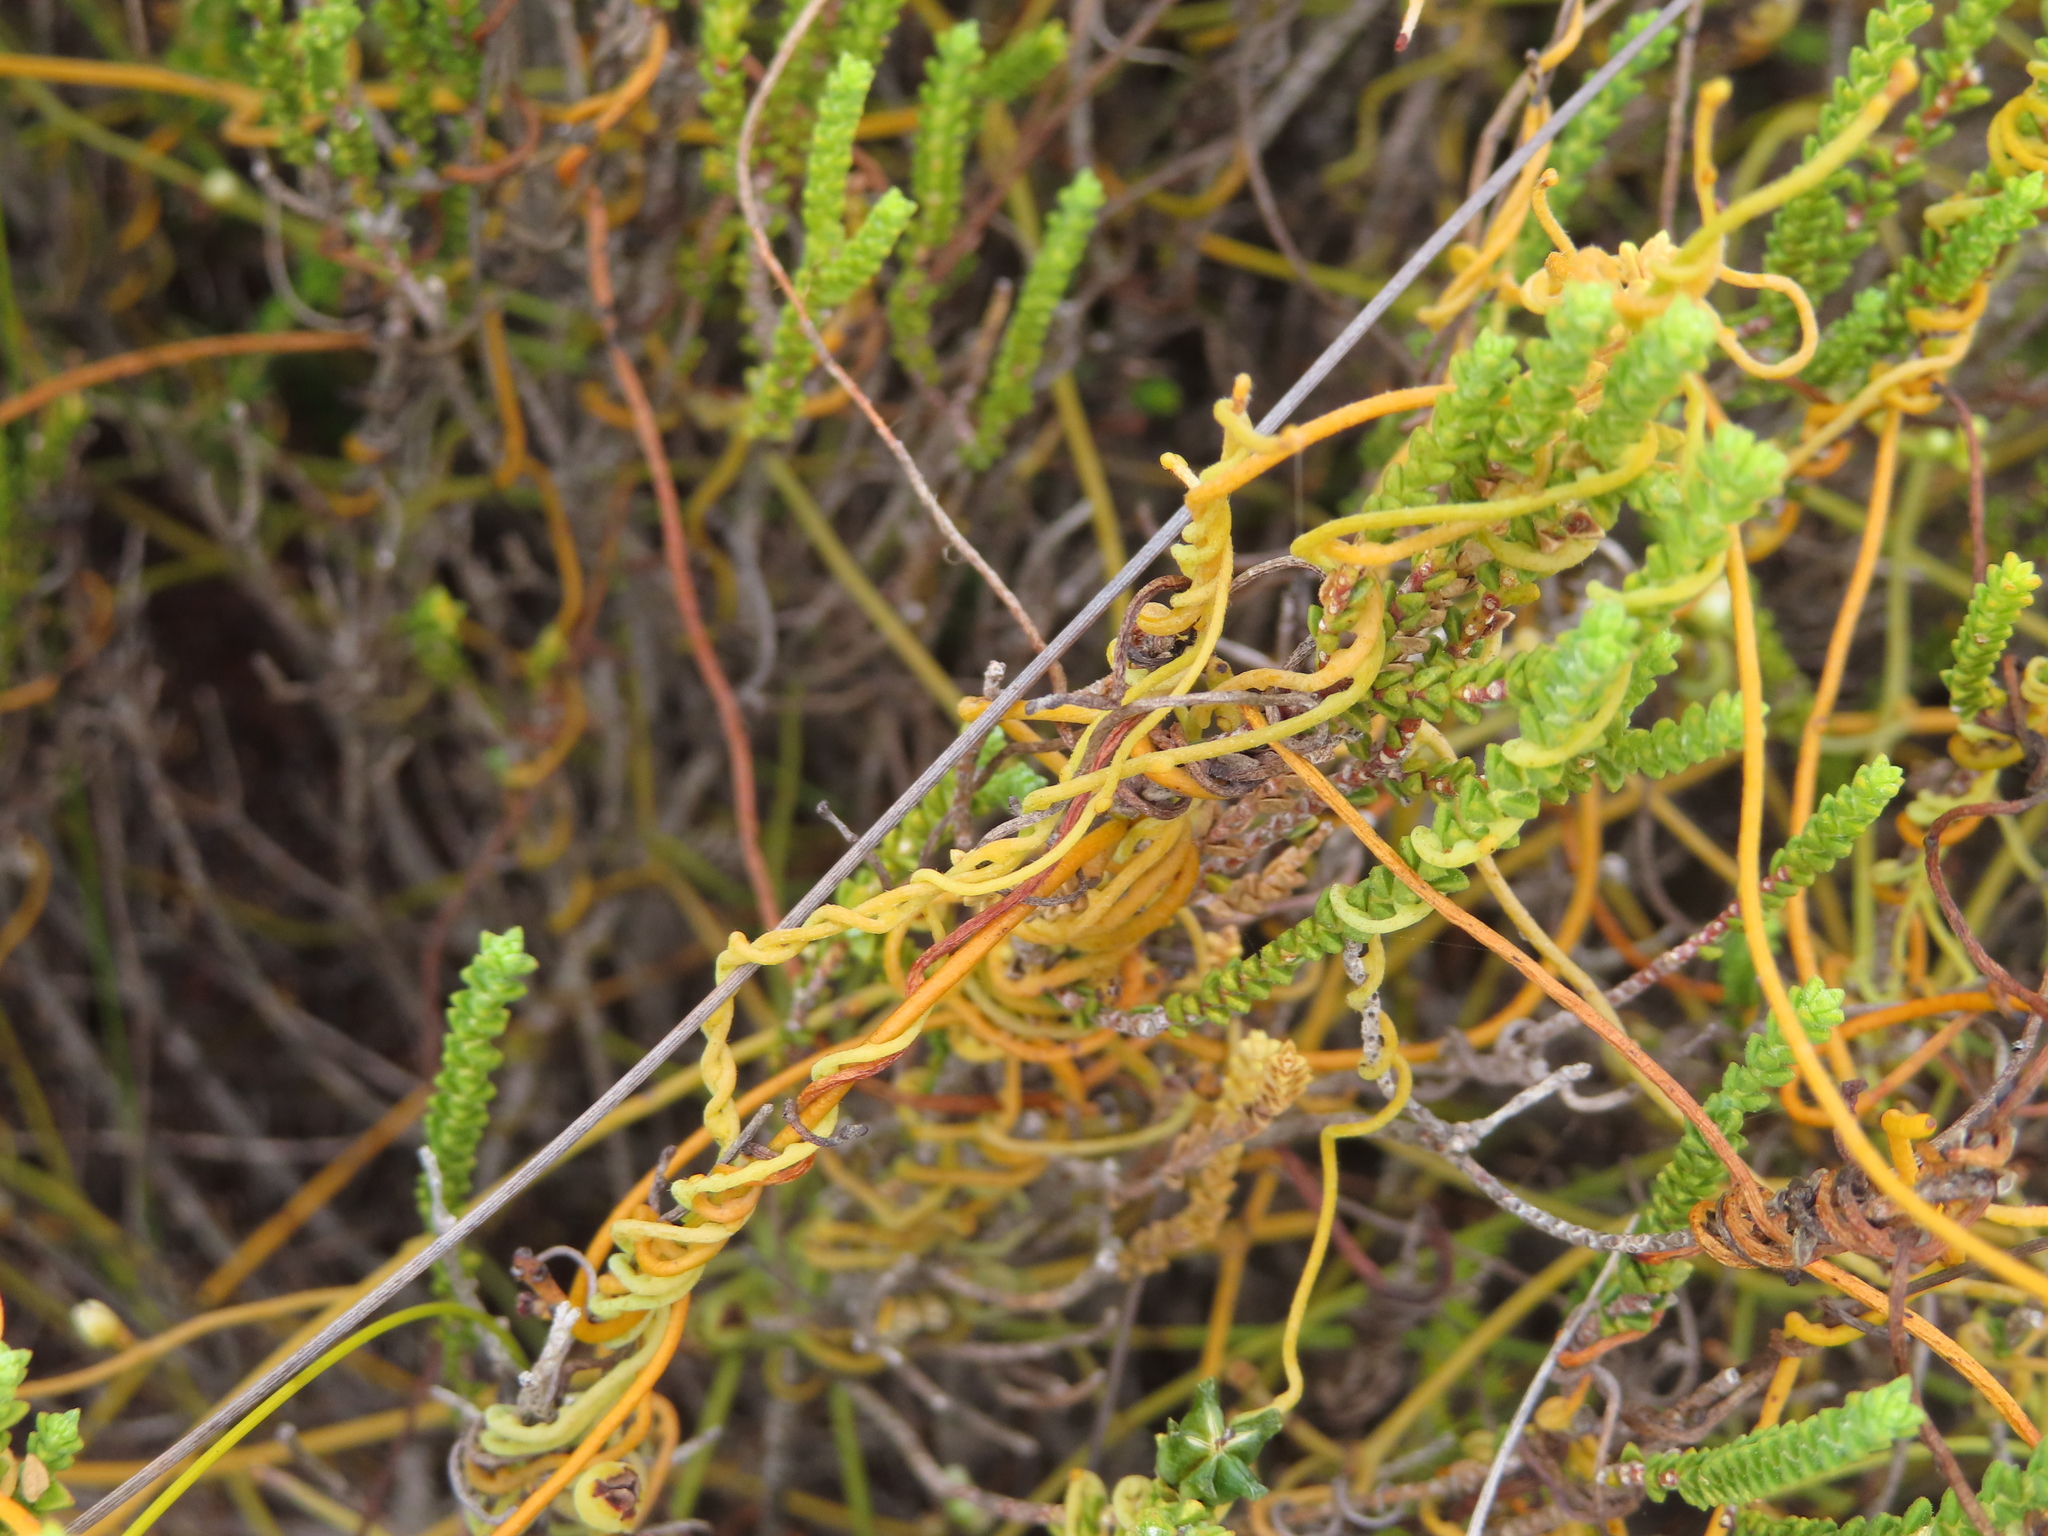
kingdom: Plantae
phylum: Tracheophyta
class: Magnoliopsida
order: Laurales
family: Lauraceae
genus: Cassytha
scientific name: Cassytha ciliolata
